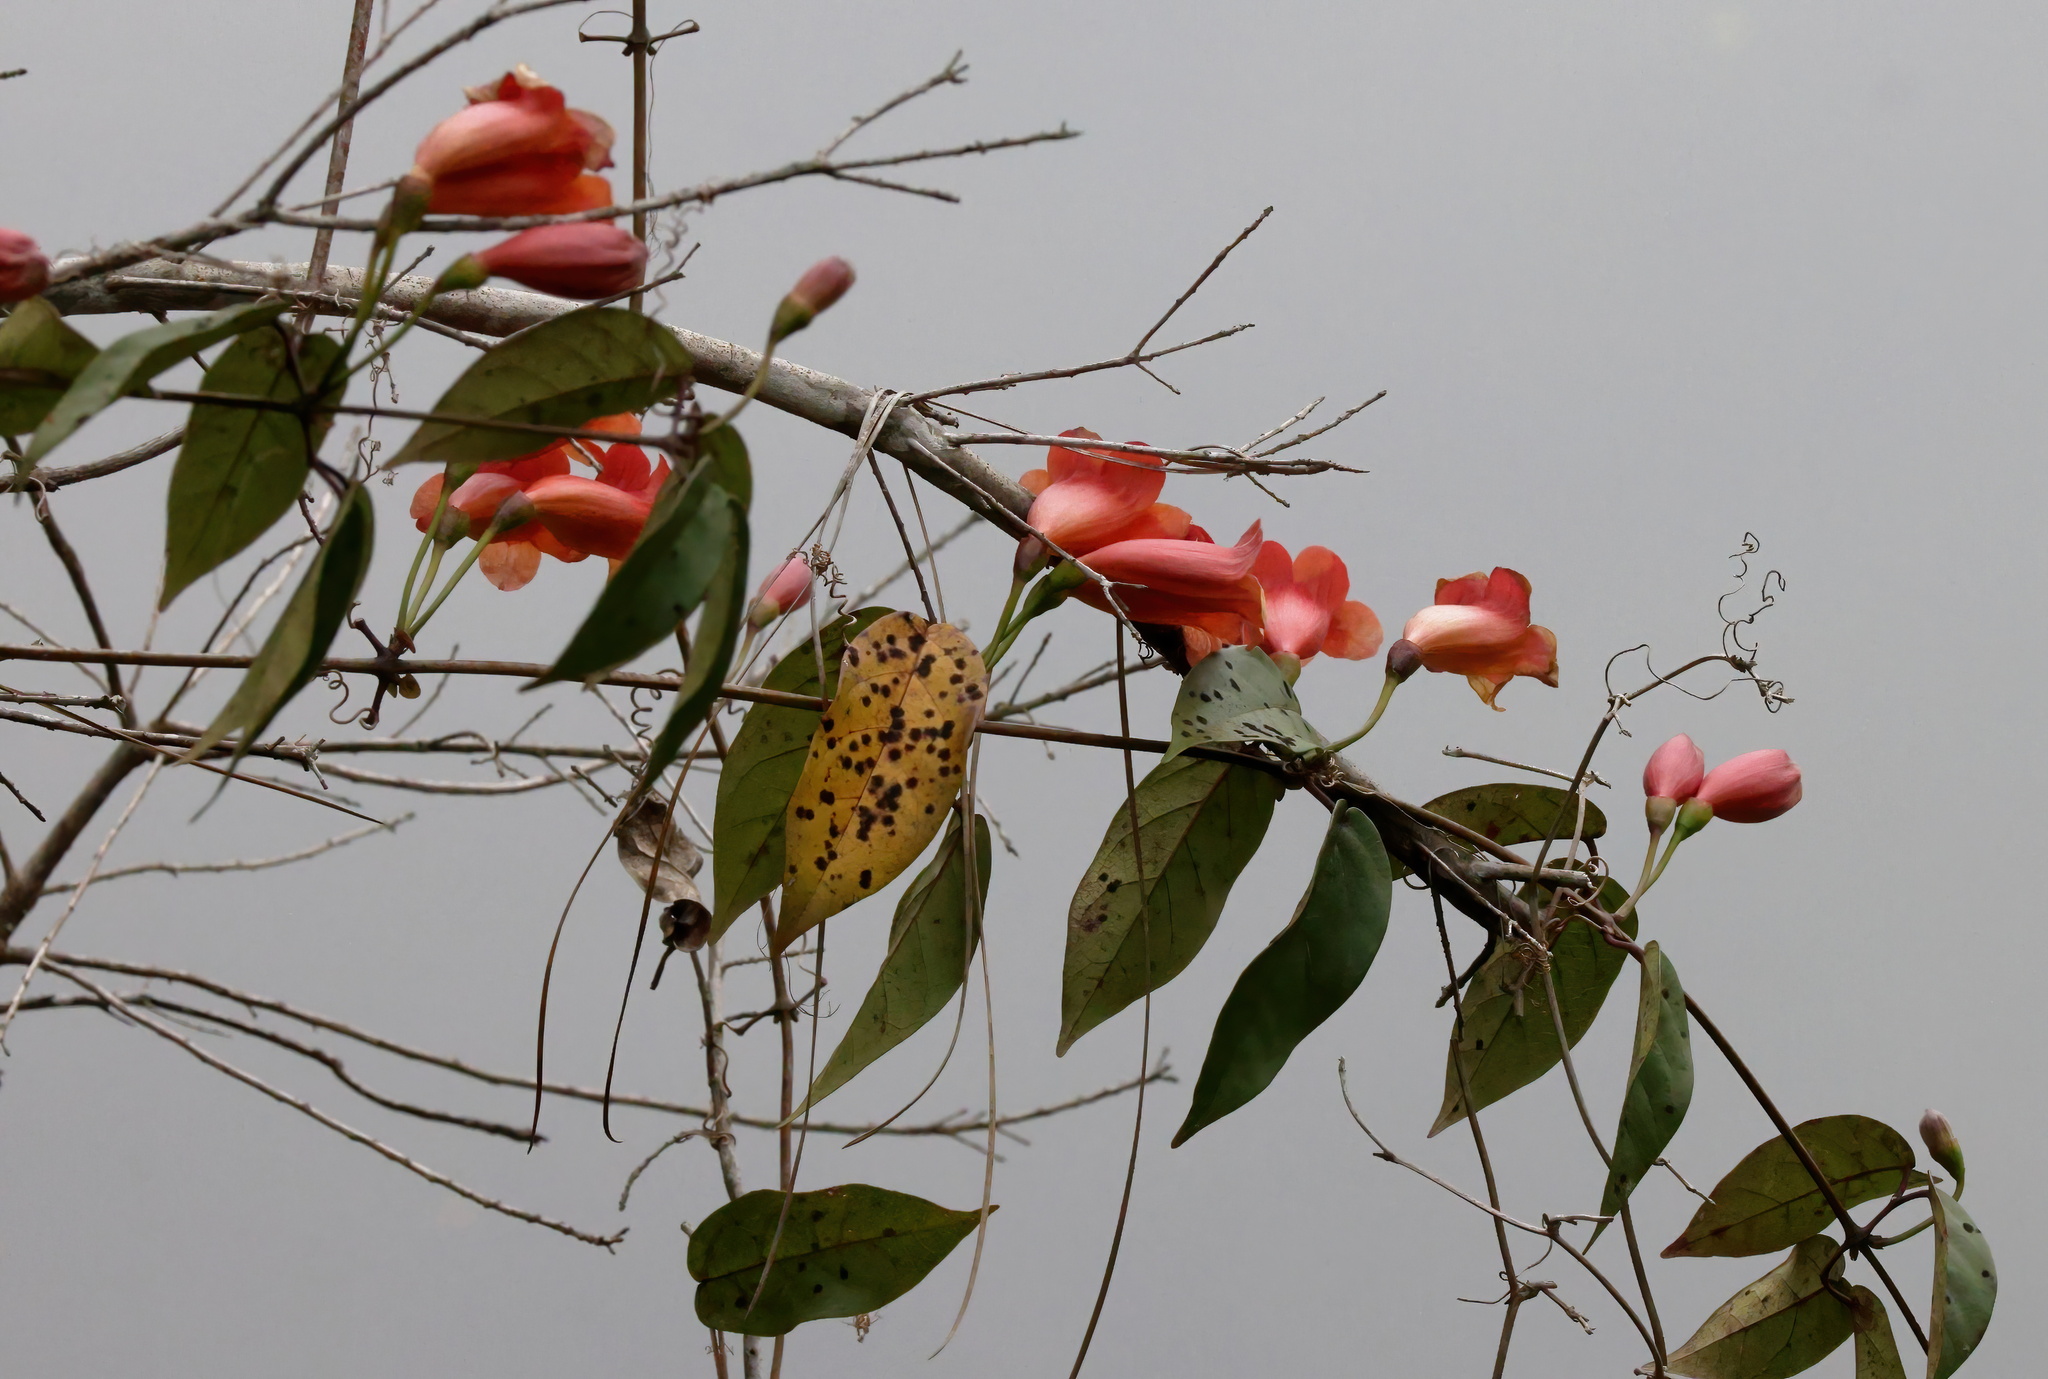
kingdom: Plantae
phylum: Tracheophyta
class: Magnoliopsida
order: Lamiales
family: Bignoniaceae
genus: Bignonia
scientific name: Bignonia capreolata
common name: Crossvine
